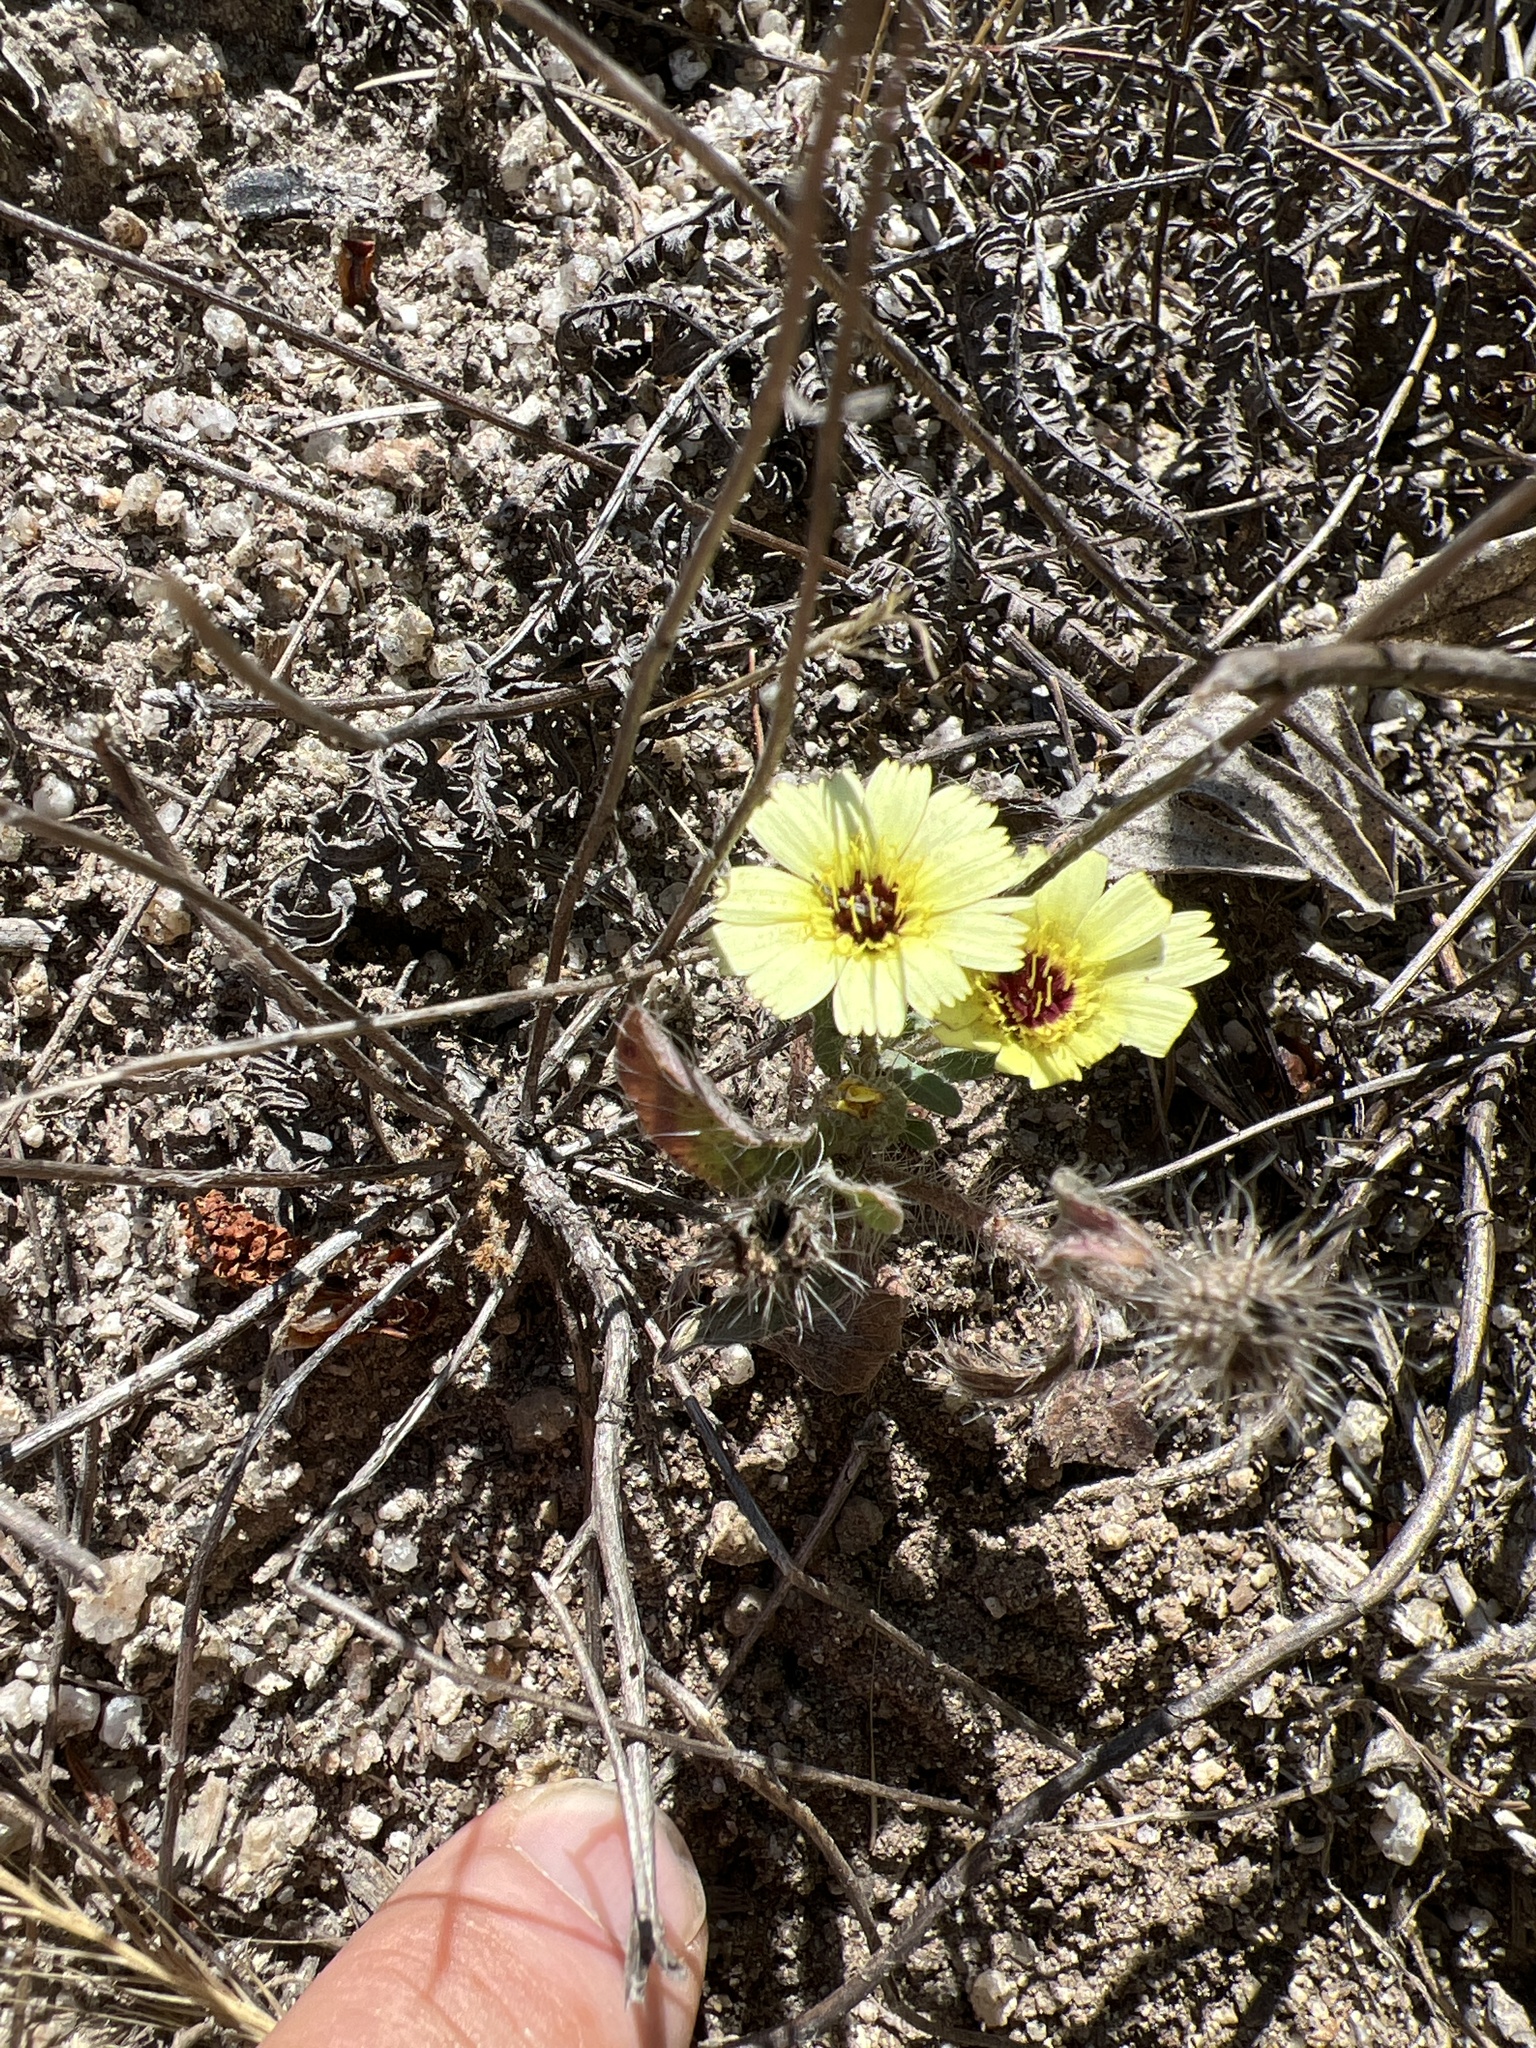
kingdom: Plantae
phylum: Tracheophyta
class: Magnoliopsida
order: Asterales
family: Asteraceae
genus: Tolpis
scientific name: Tolpis barbata
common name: Yellow hawkweed
